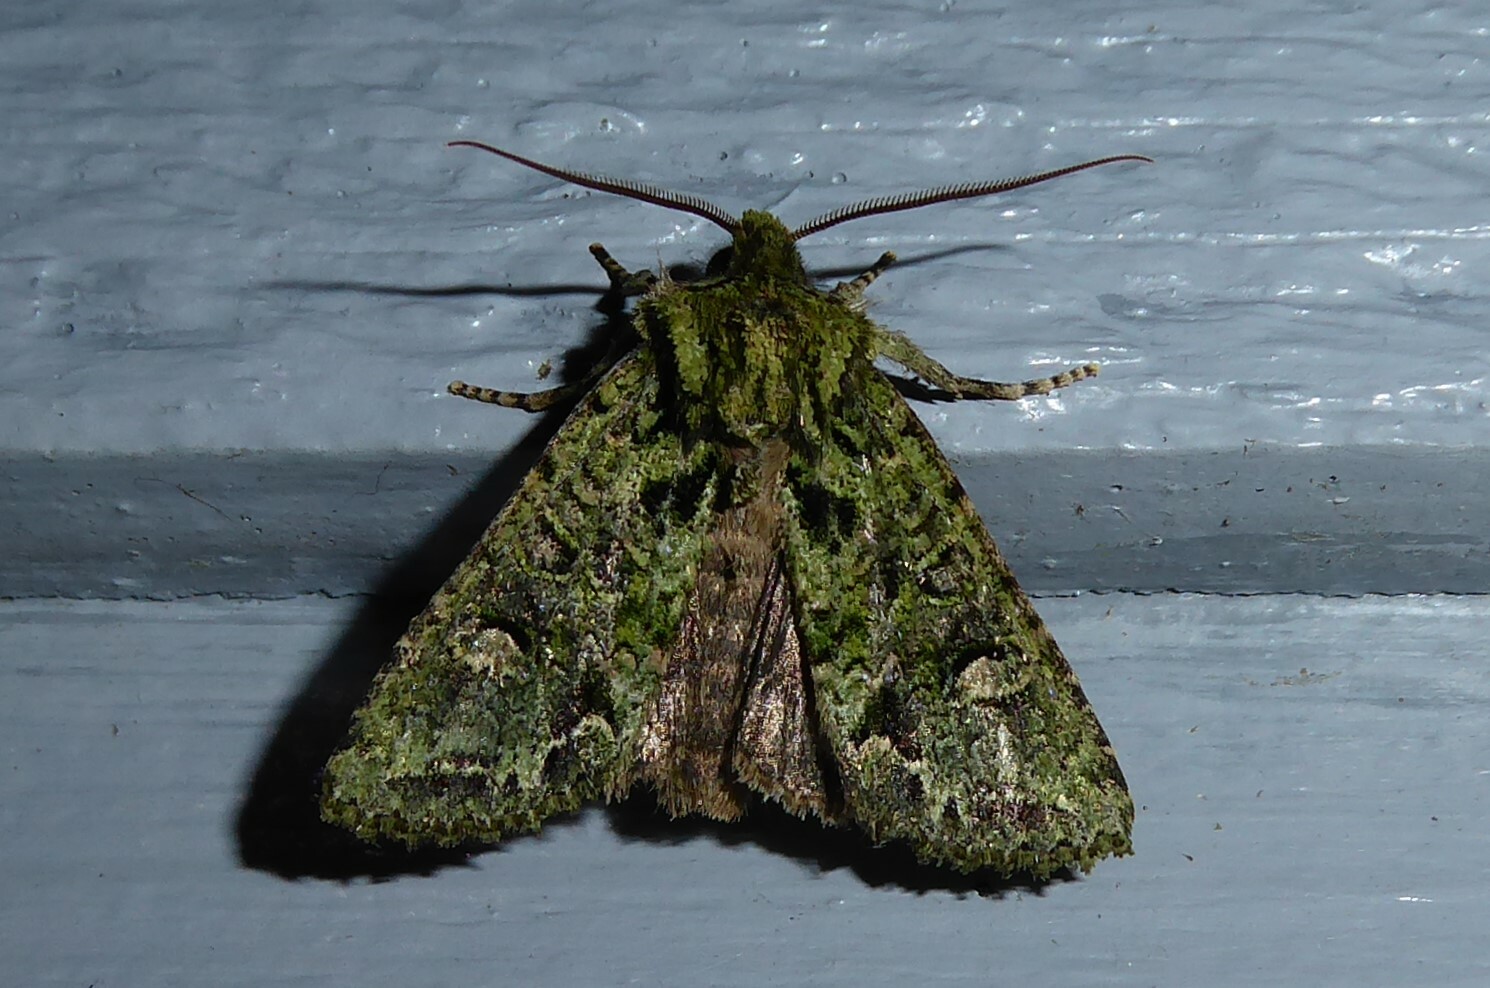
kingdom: Animalia
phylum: Arthropoda
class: Insecta
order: Lepidoptera
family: Noctuidae
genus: Ichneutica
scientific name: Ichneutica
